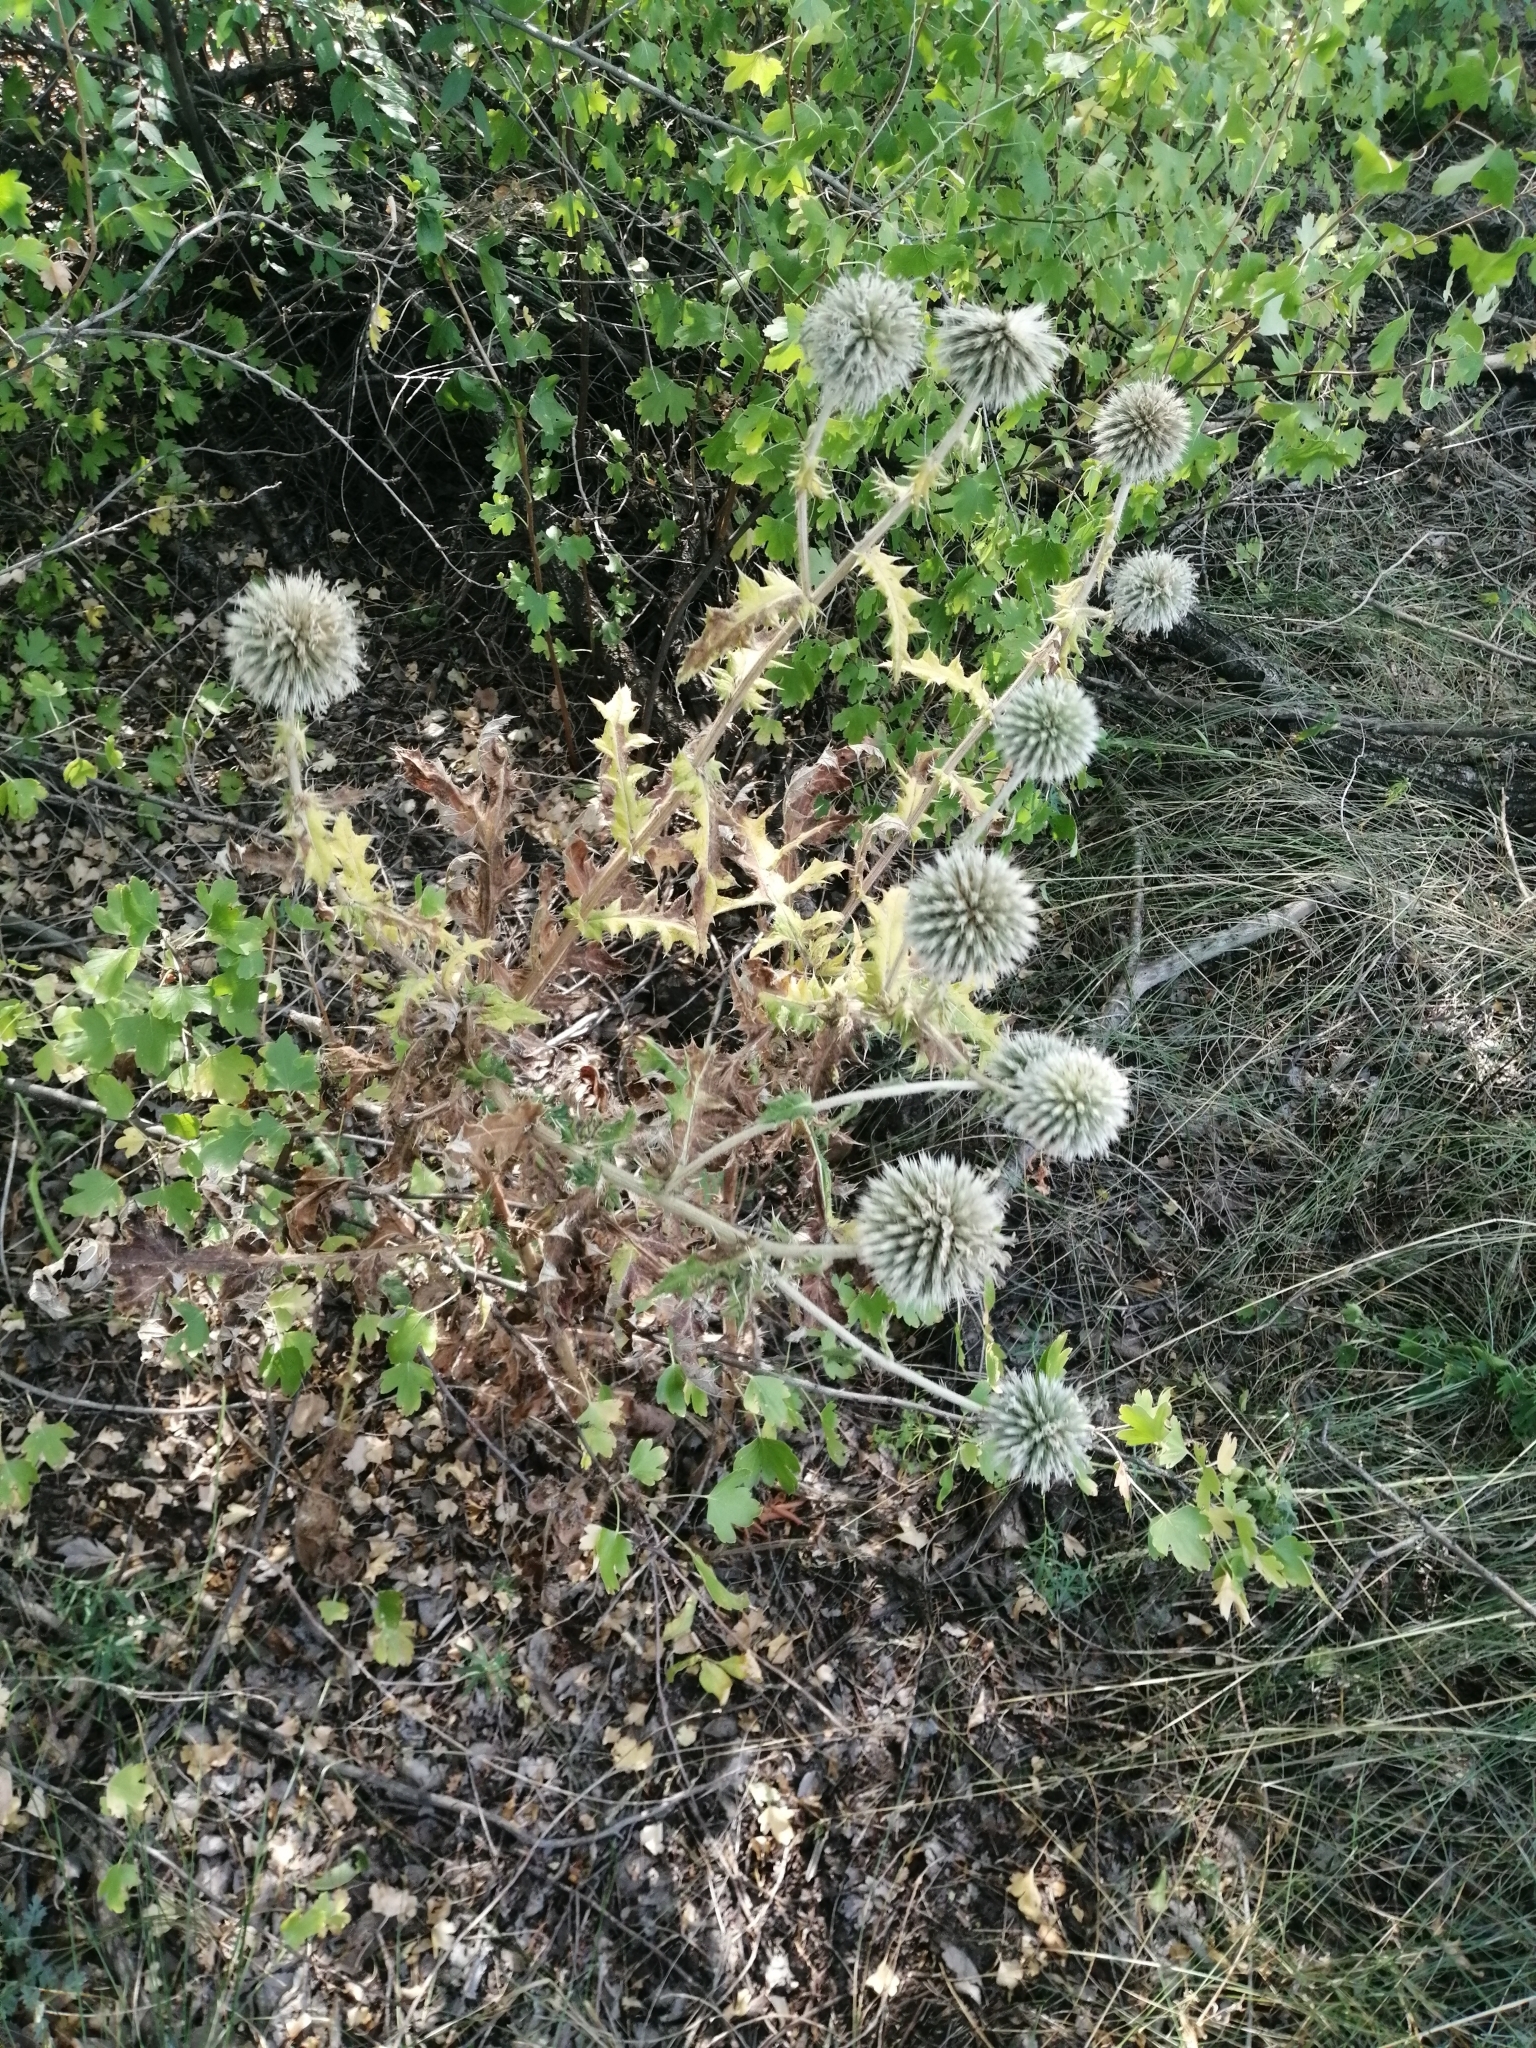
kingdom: Plantae
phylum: Tracheophyta
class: Magnoliopsida
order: Asterales
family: Asteraceae
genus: Echinops
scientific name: Echinops sphaerocephalus
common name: Glandular globe-thistle
